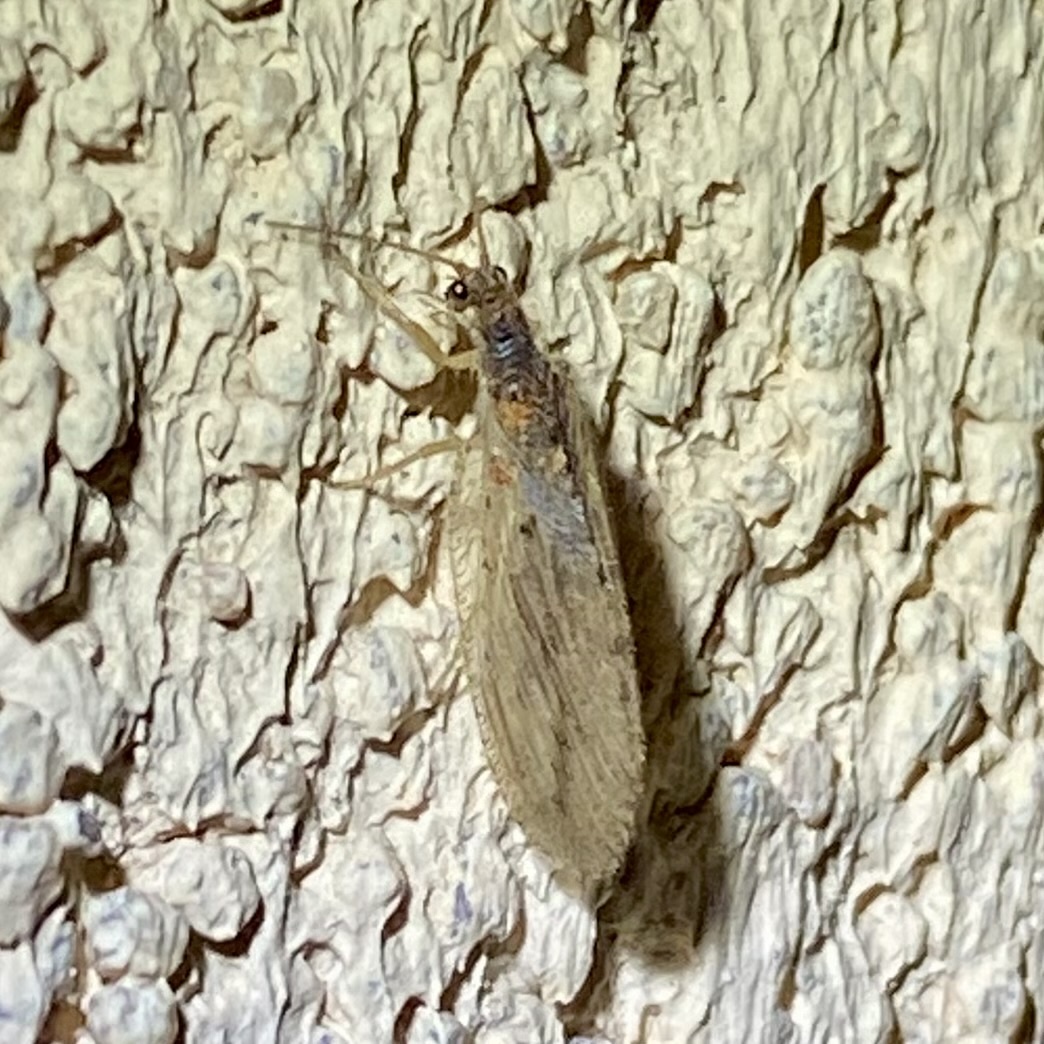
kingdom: Animalia
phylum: Arthropoda
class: Insecta
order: Neuroptera
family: Hemerobiidae
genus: Micromus
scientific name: Micromus variolosus
